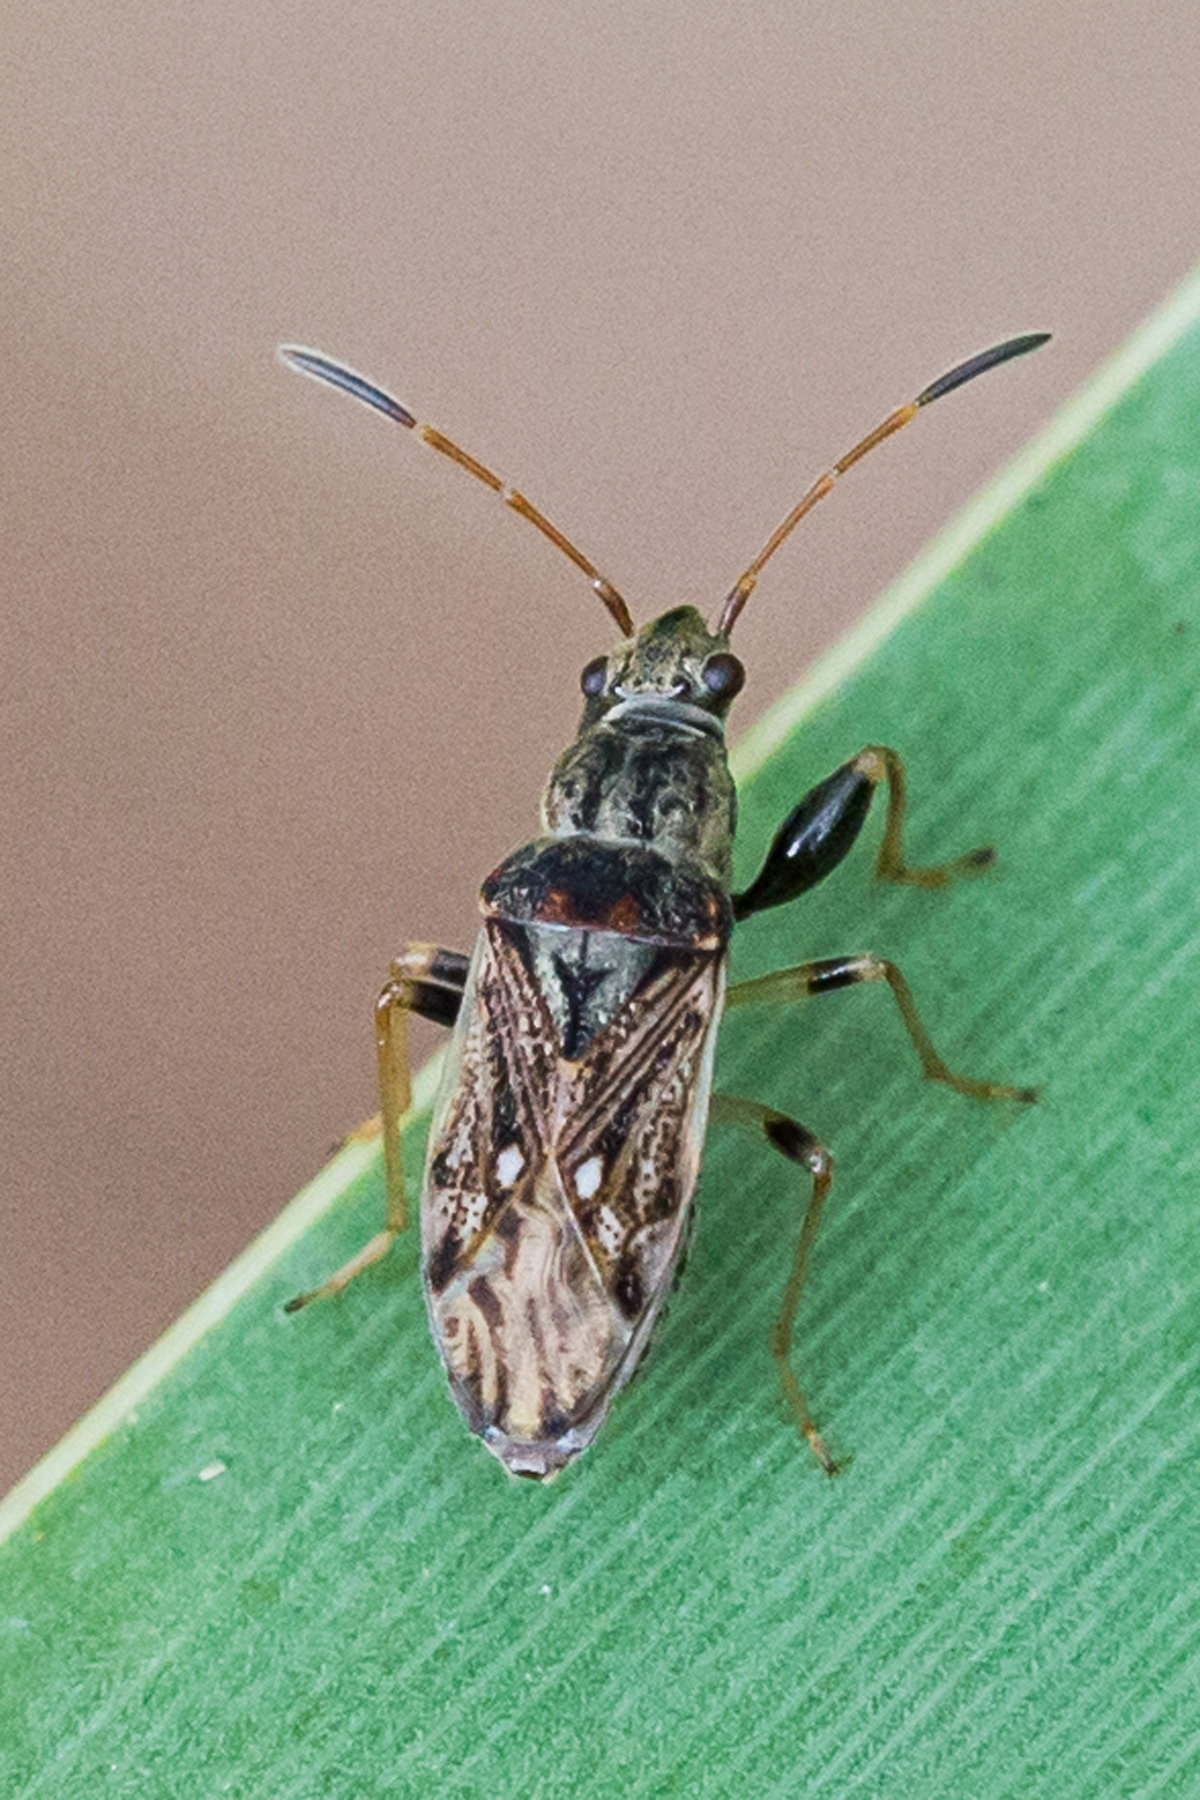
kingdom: Animalia
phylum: Arthropoda
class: Insecta
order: Hemiptera
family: Rhyparochromidae
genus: Pseudopachybrachius
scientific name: Pseudopachybrachius basalis
